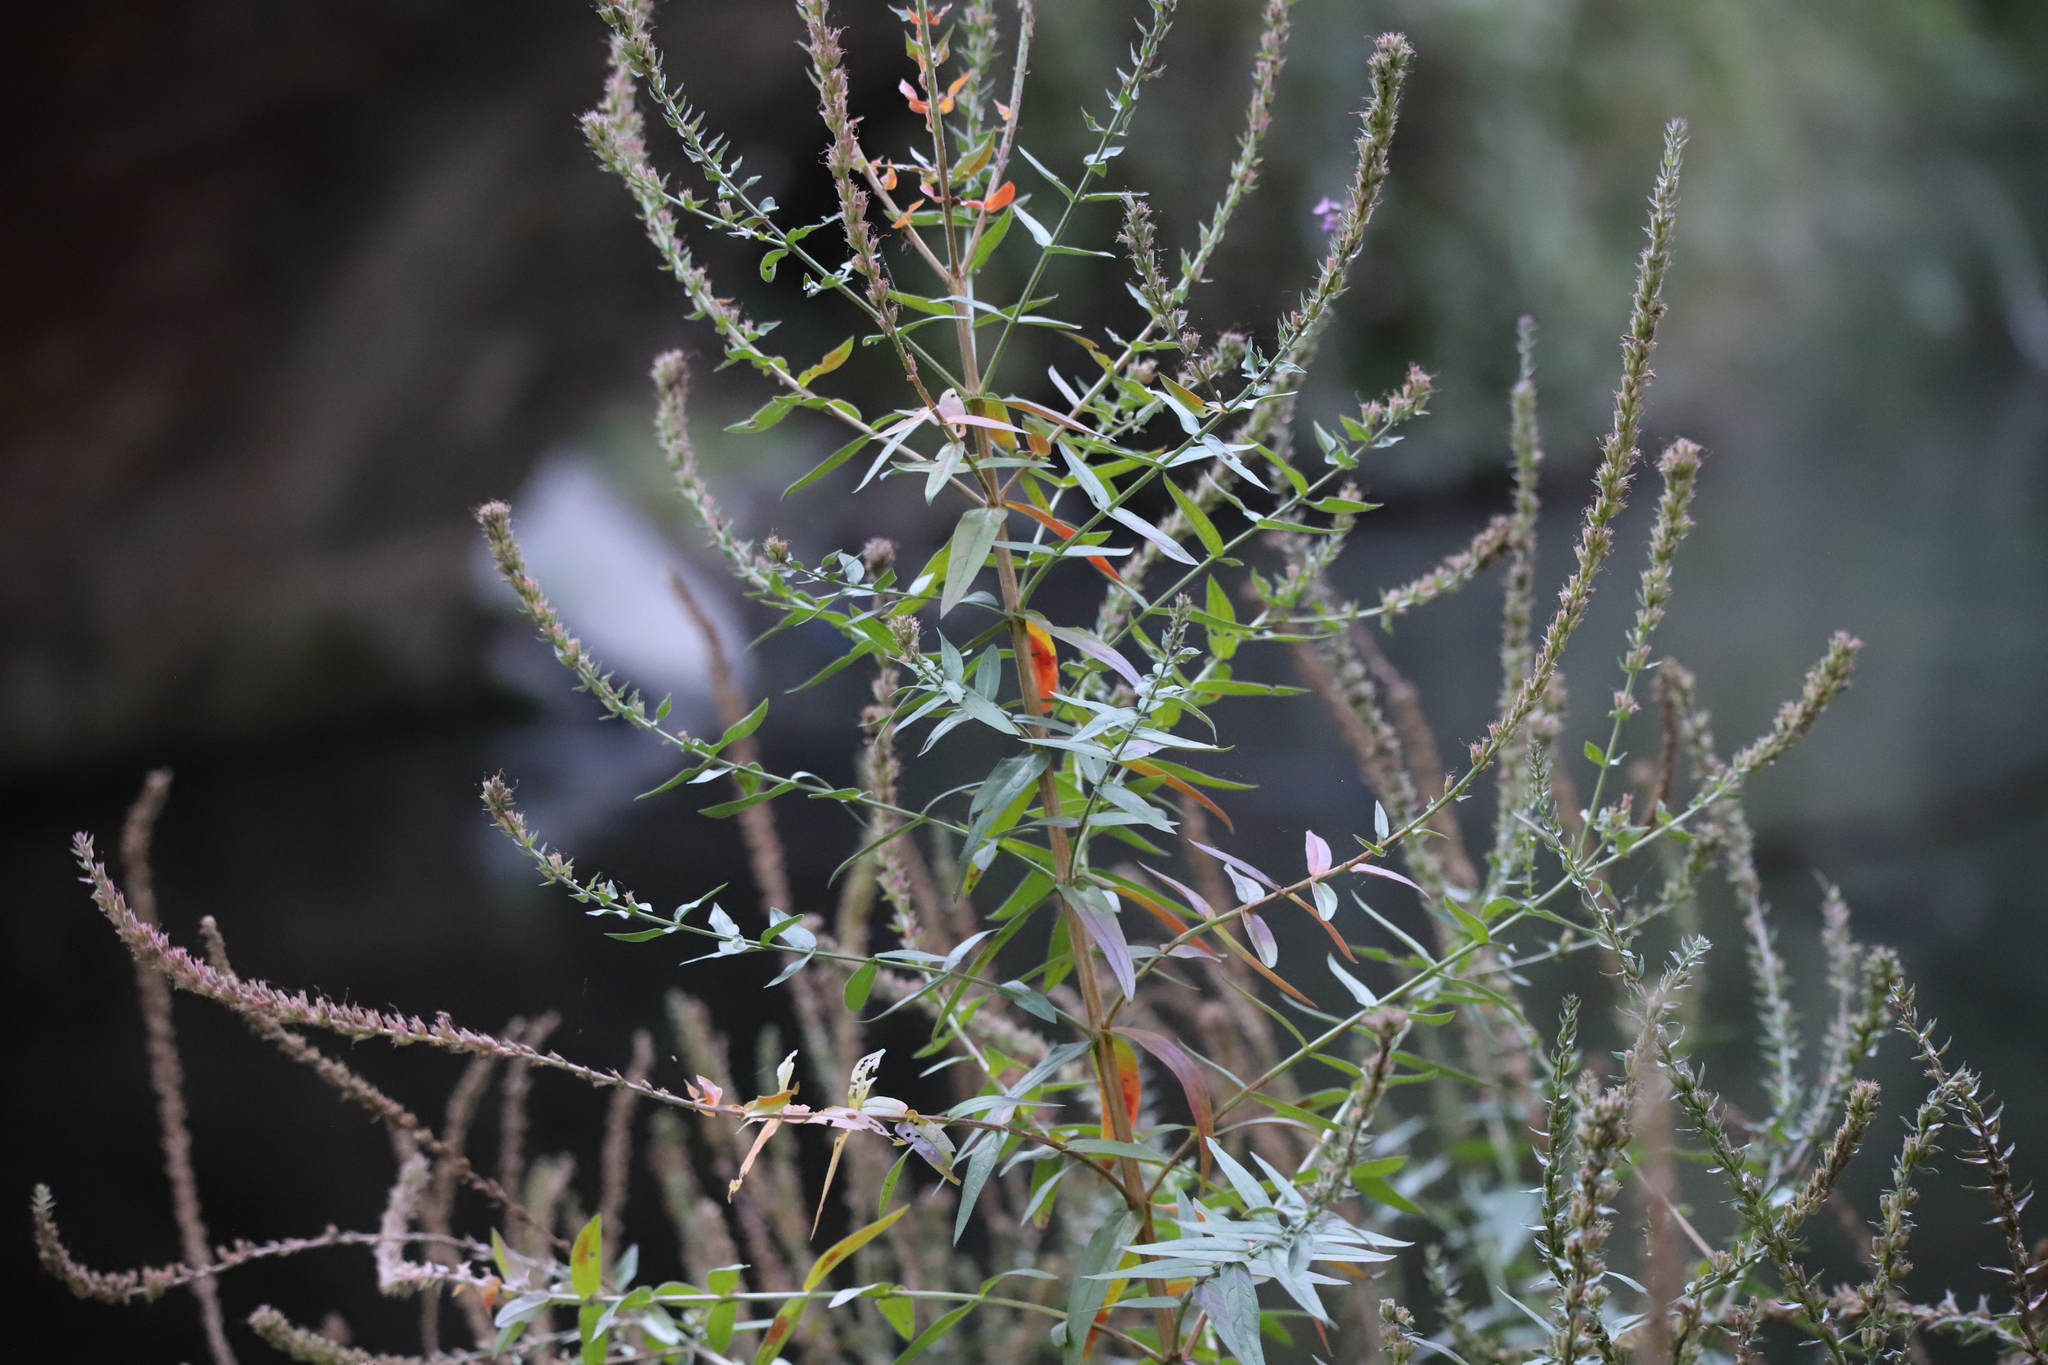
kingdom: Plantae
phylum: Tracheophyta
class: Magnoliopsida
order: Myrtales
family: Lythraceae
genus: Lythrum
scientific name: Lythrum salicaria
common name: Purple loosestrife
